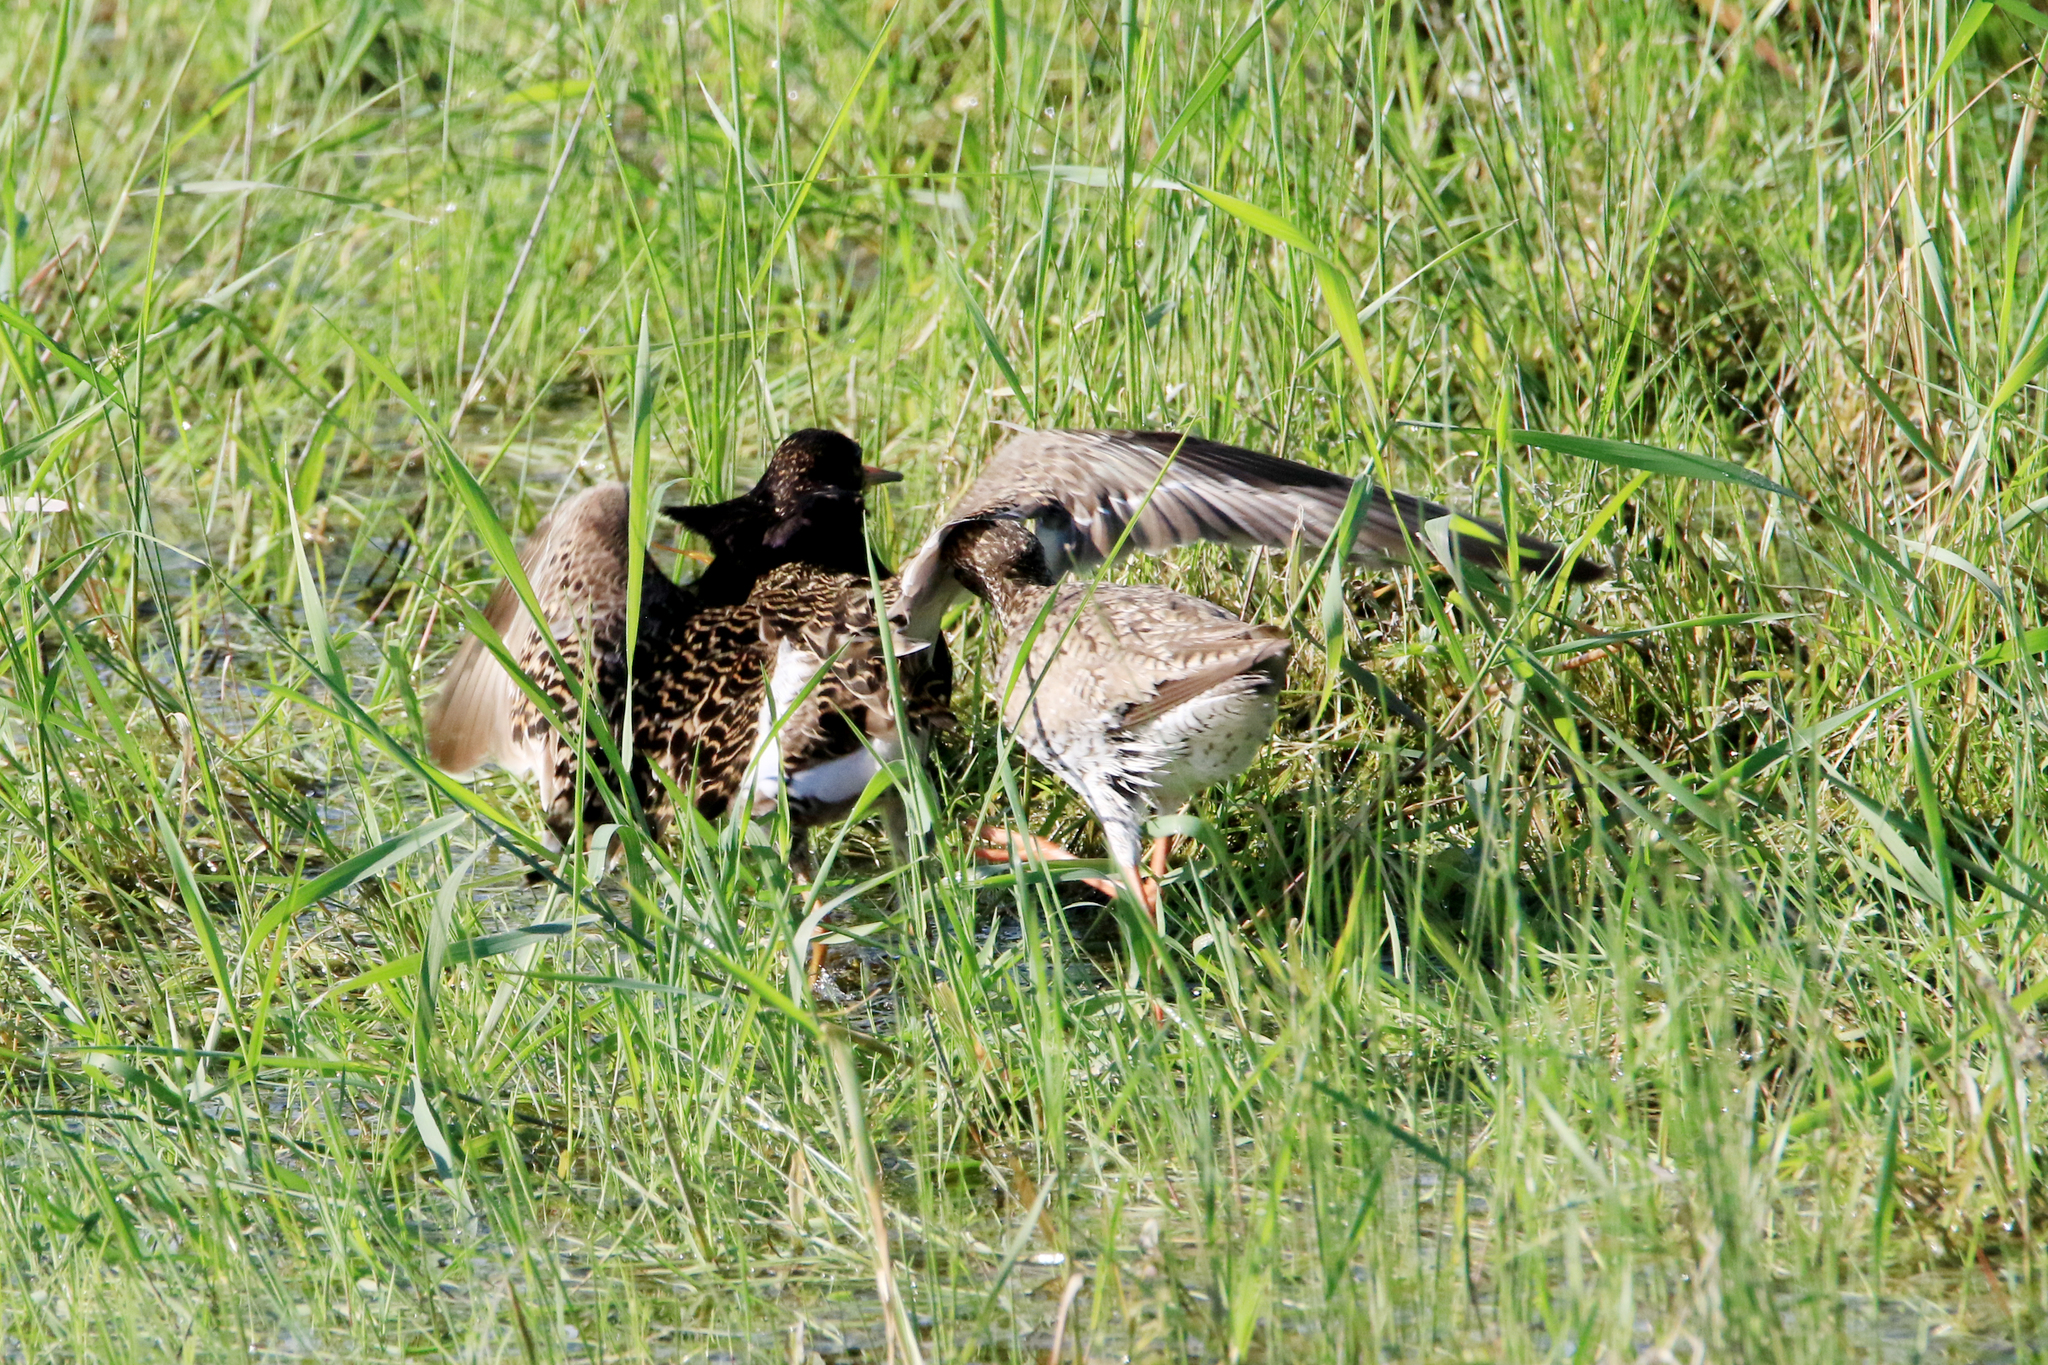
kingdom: Animalia
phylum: Chordata
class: Aves
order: Charadriiformes
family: Scolopacidae
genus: Calidris
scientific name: Calidris pugnax
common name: Ruff
